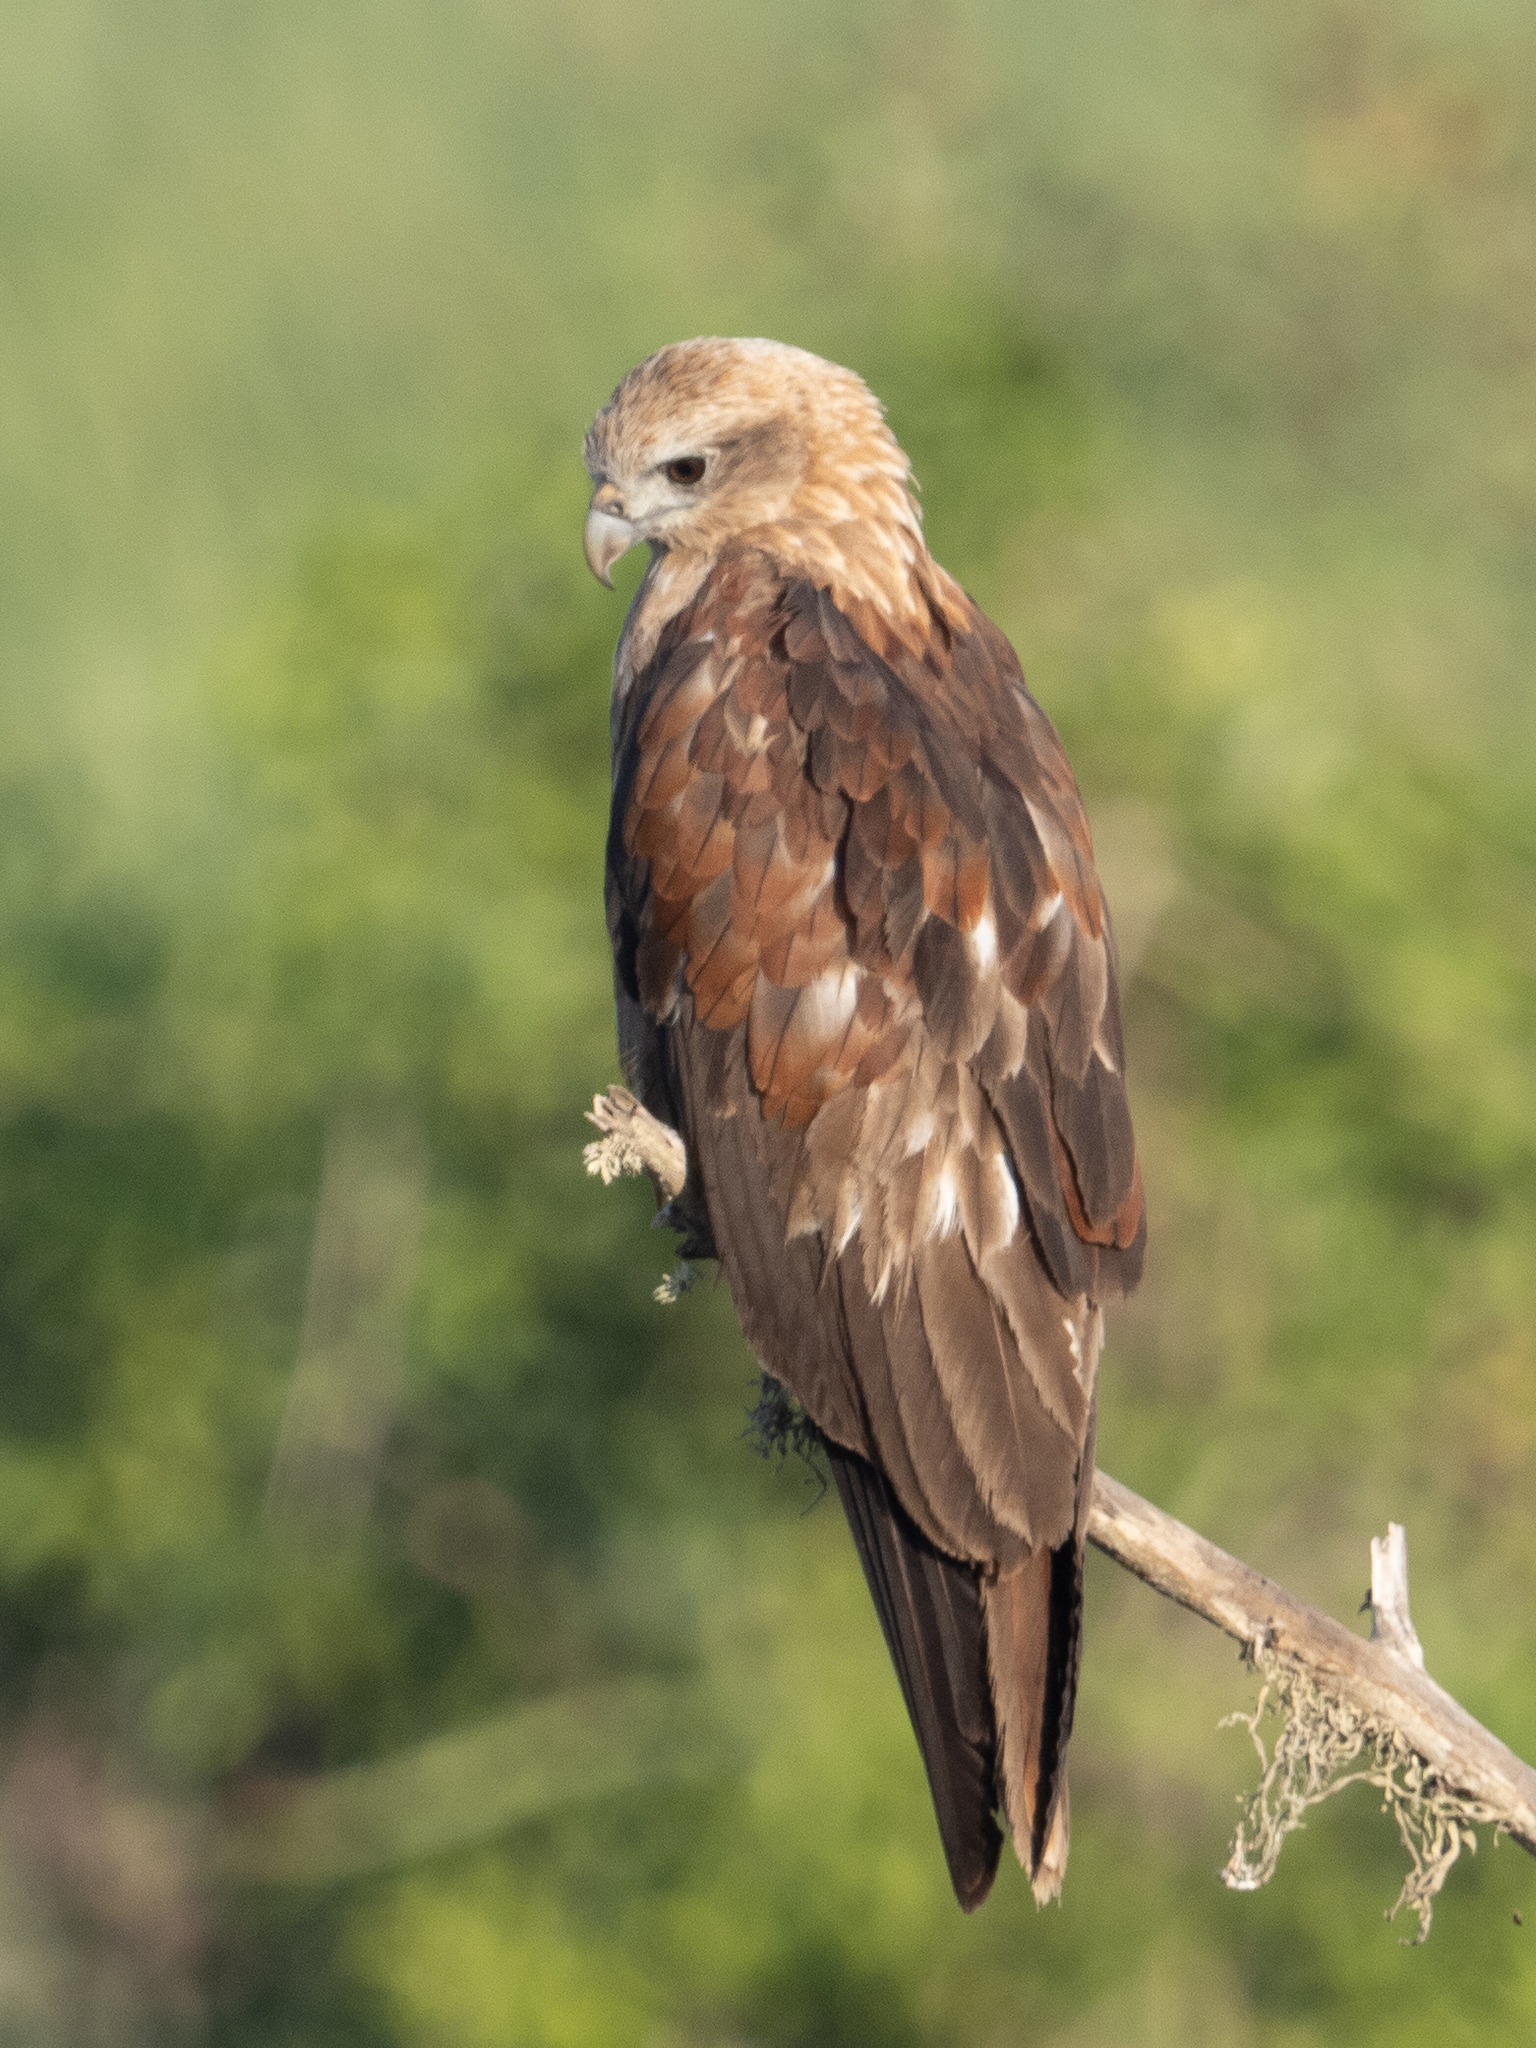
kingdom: Animalia
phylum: Chordata
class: Aves
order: Accipitriformes
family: Accipitridae
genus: Haliastur
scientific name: Haliastur indus
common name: Brahminy kite
